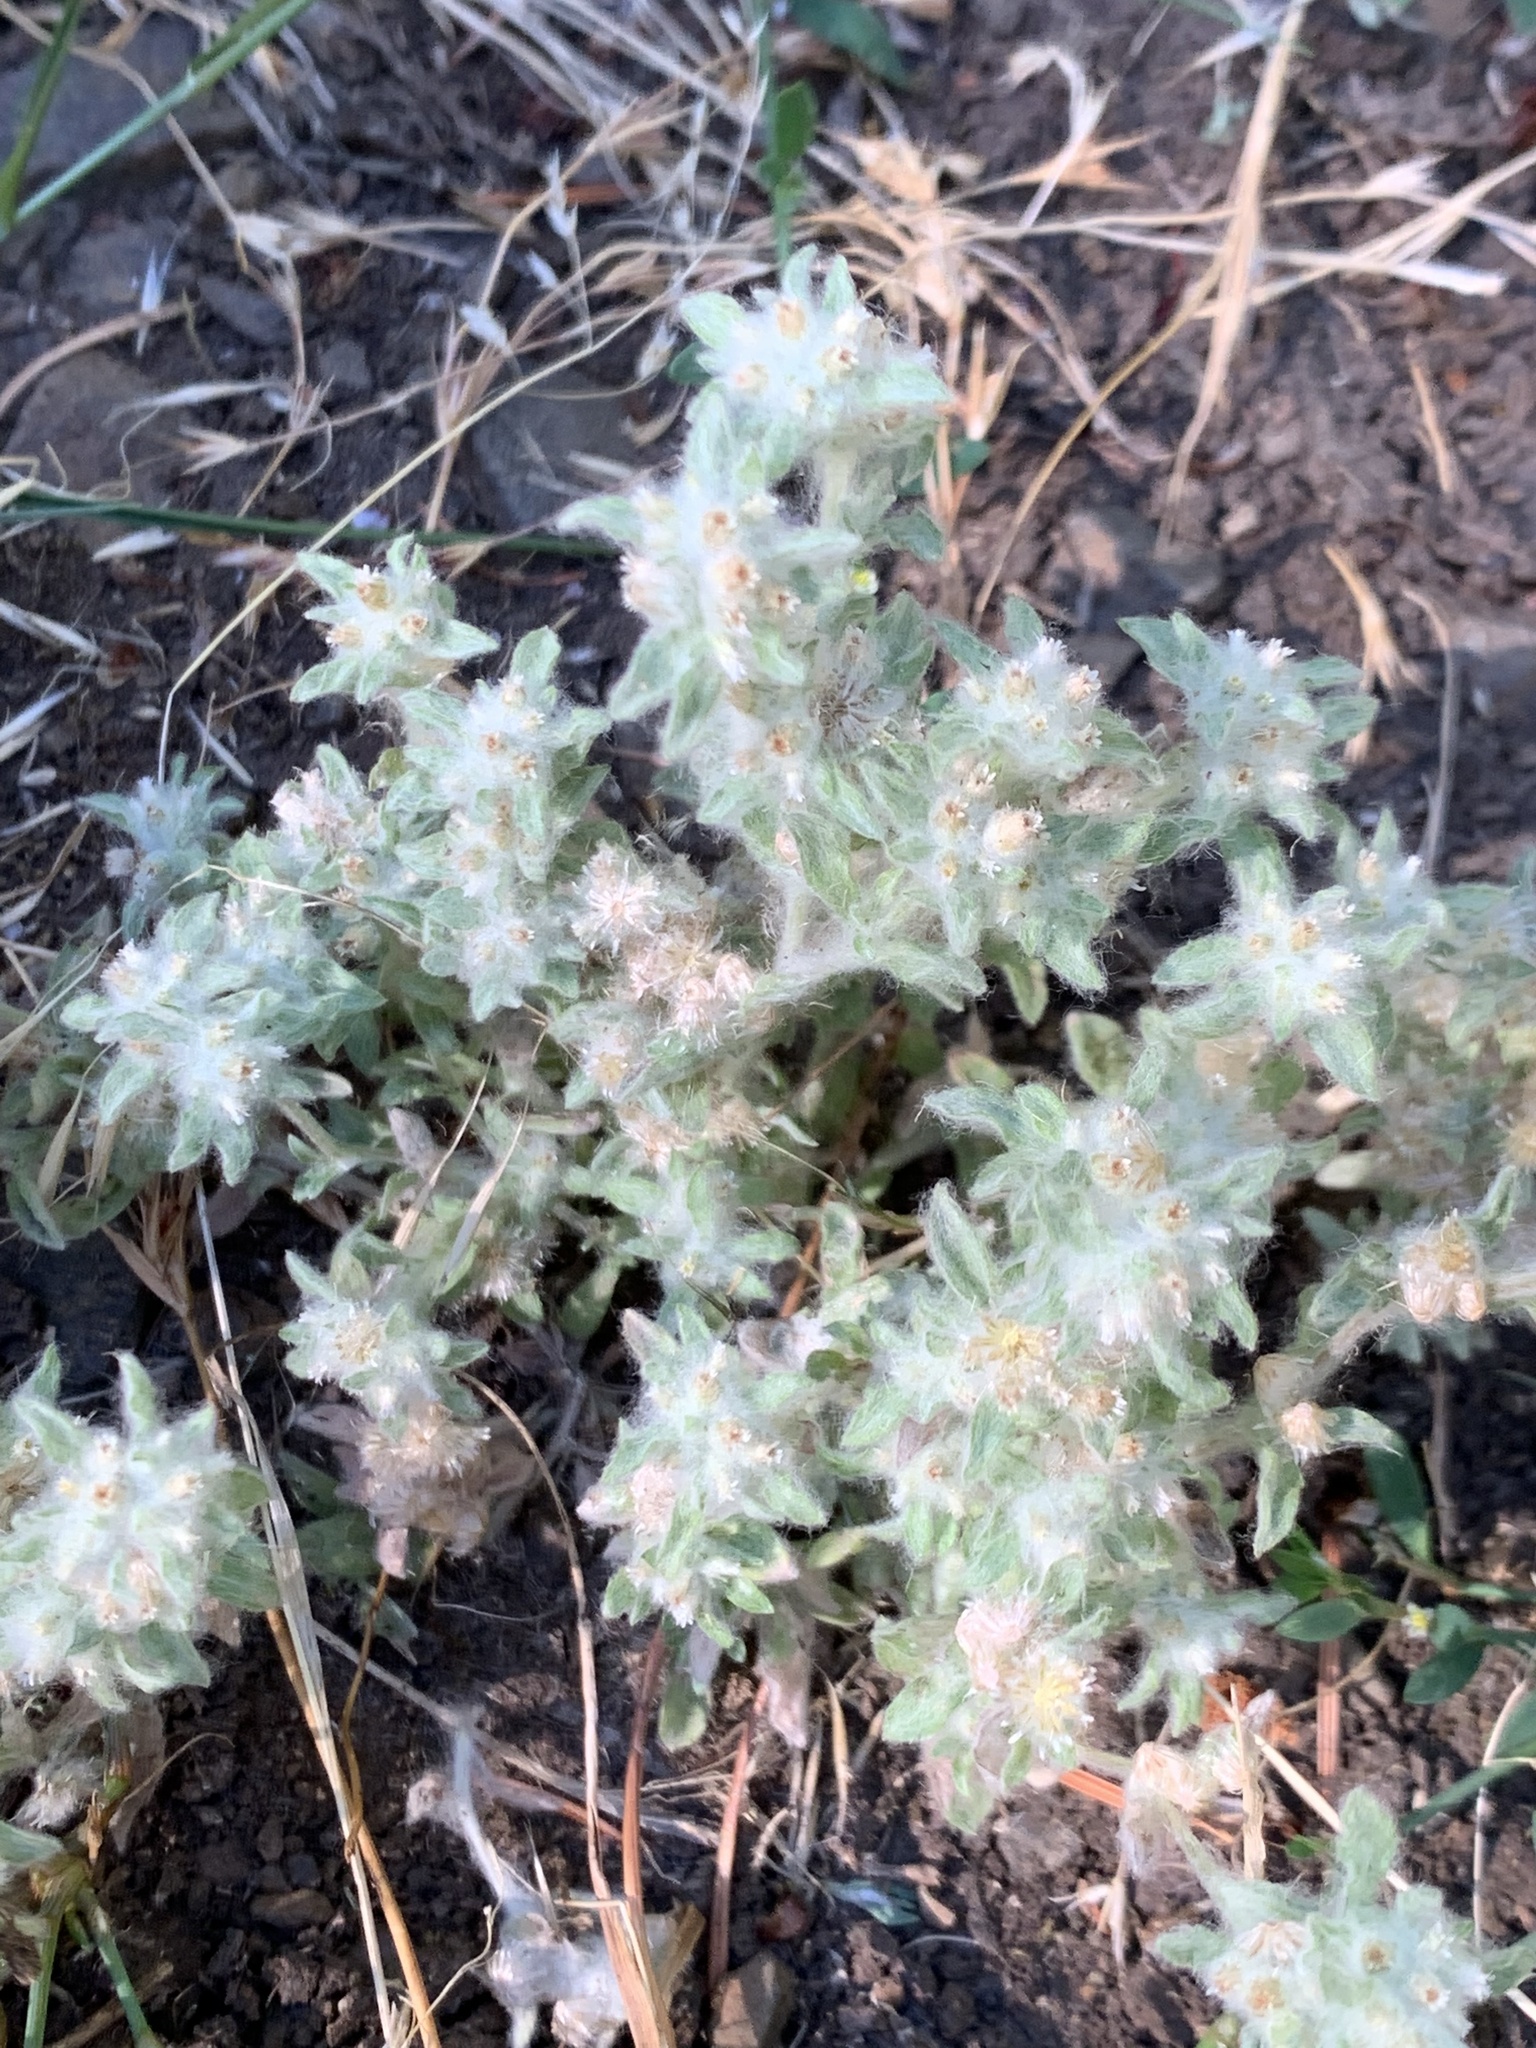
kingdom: Plantae
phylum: Tracheophyta
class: Magnoliopsida
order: Asterales
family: Asteraceae
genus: Gnaphalium
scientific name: Gnaphalium palustre
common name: Western marsh cudweed
